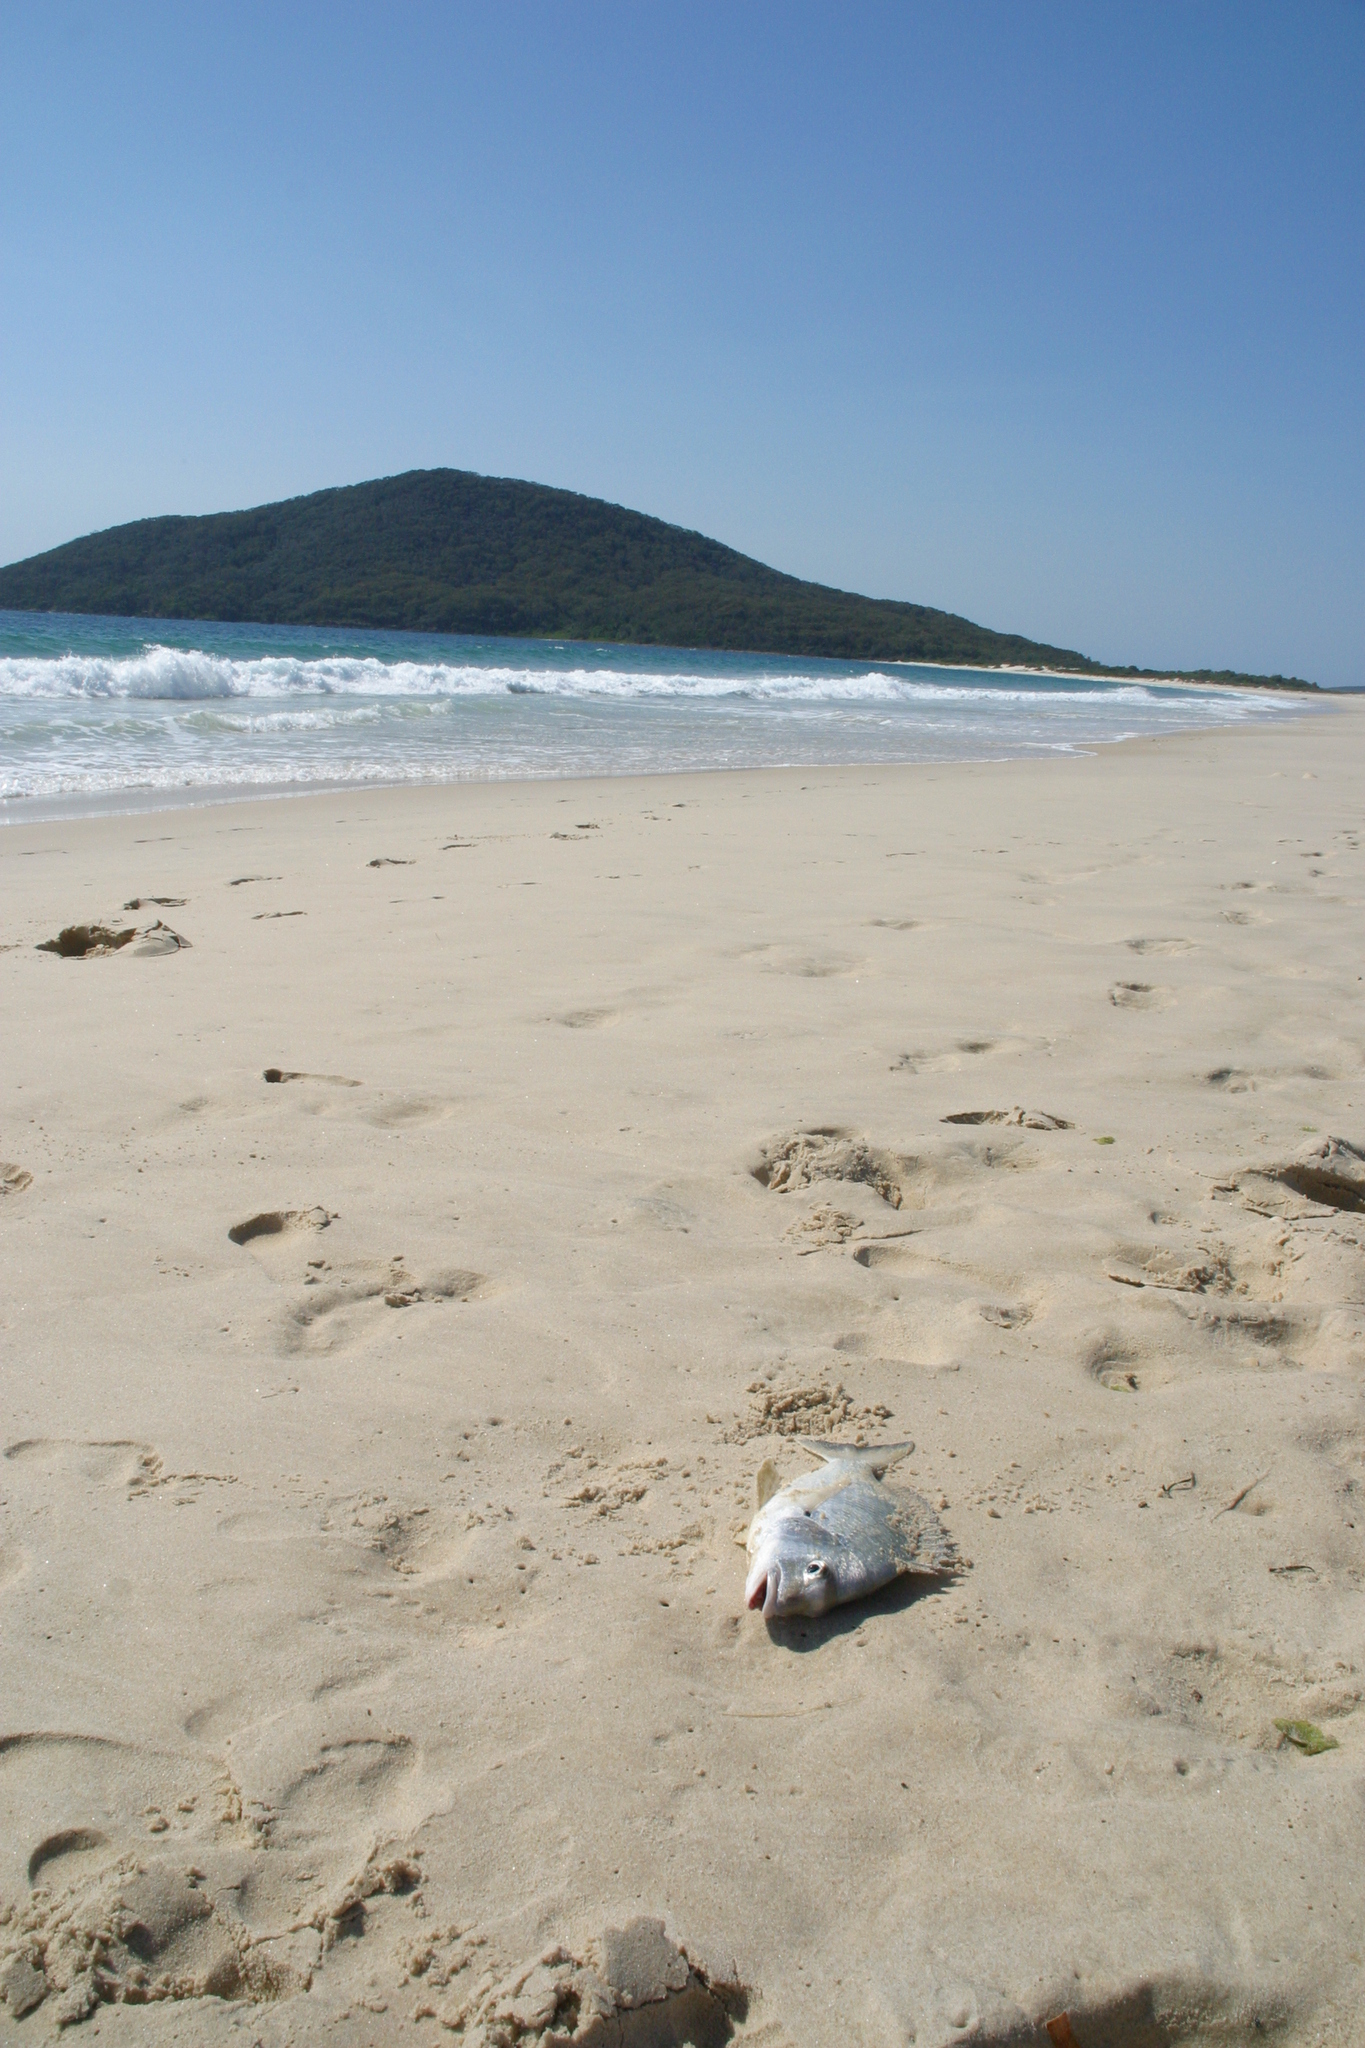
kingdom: Animalia
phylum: Chordata
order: Perciformes
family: Sparidae
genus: Acanthopagrus
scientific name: Acanthopagrus australis
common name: Surf bream
